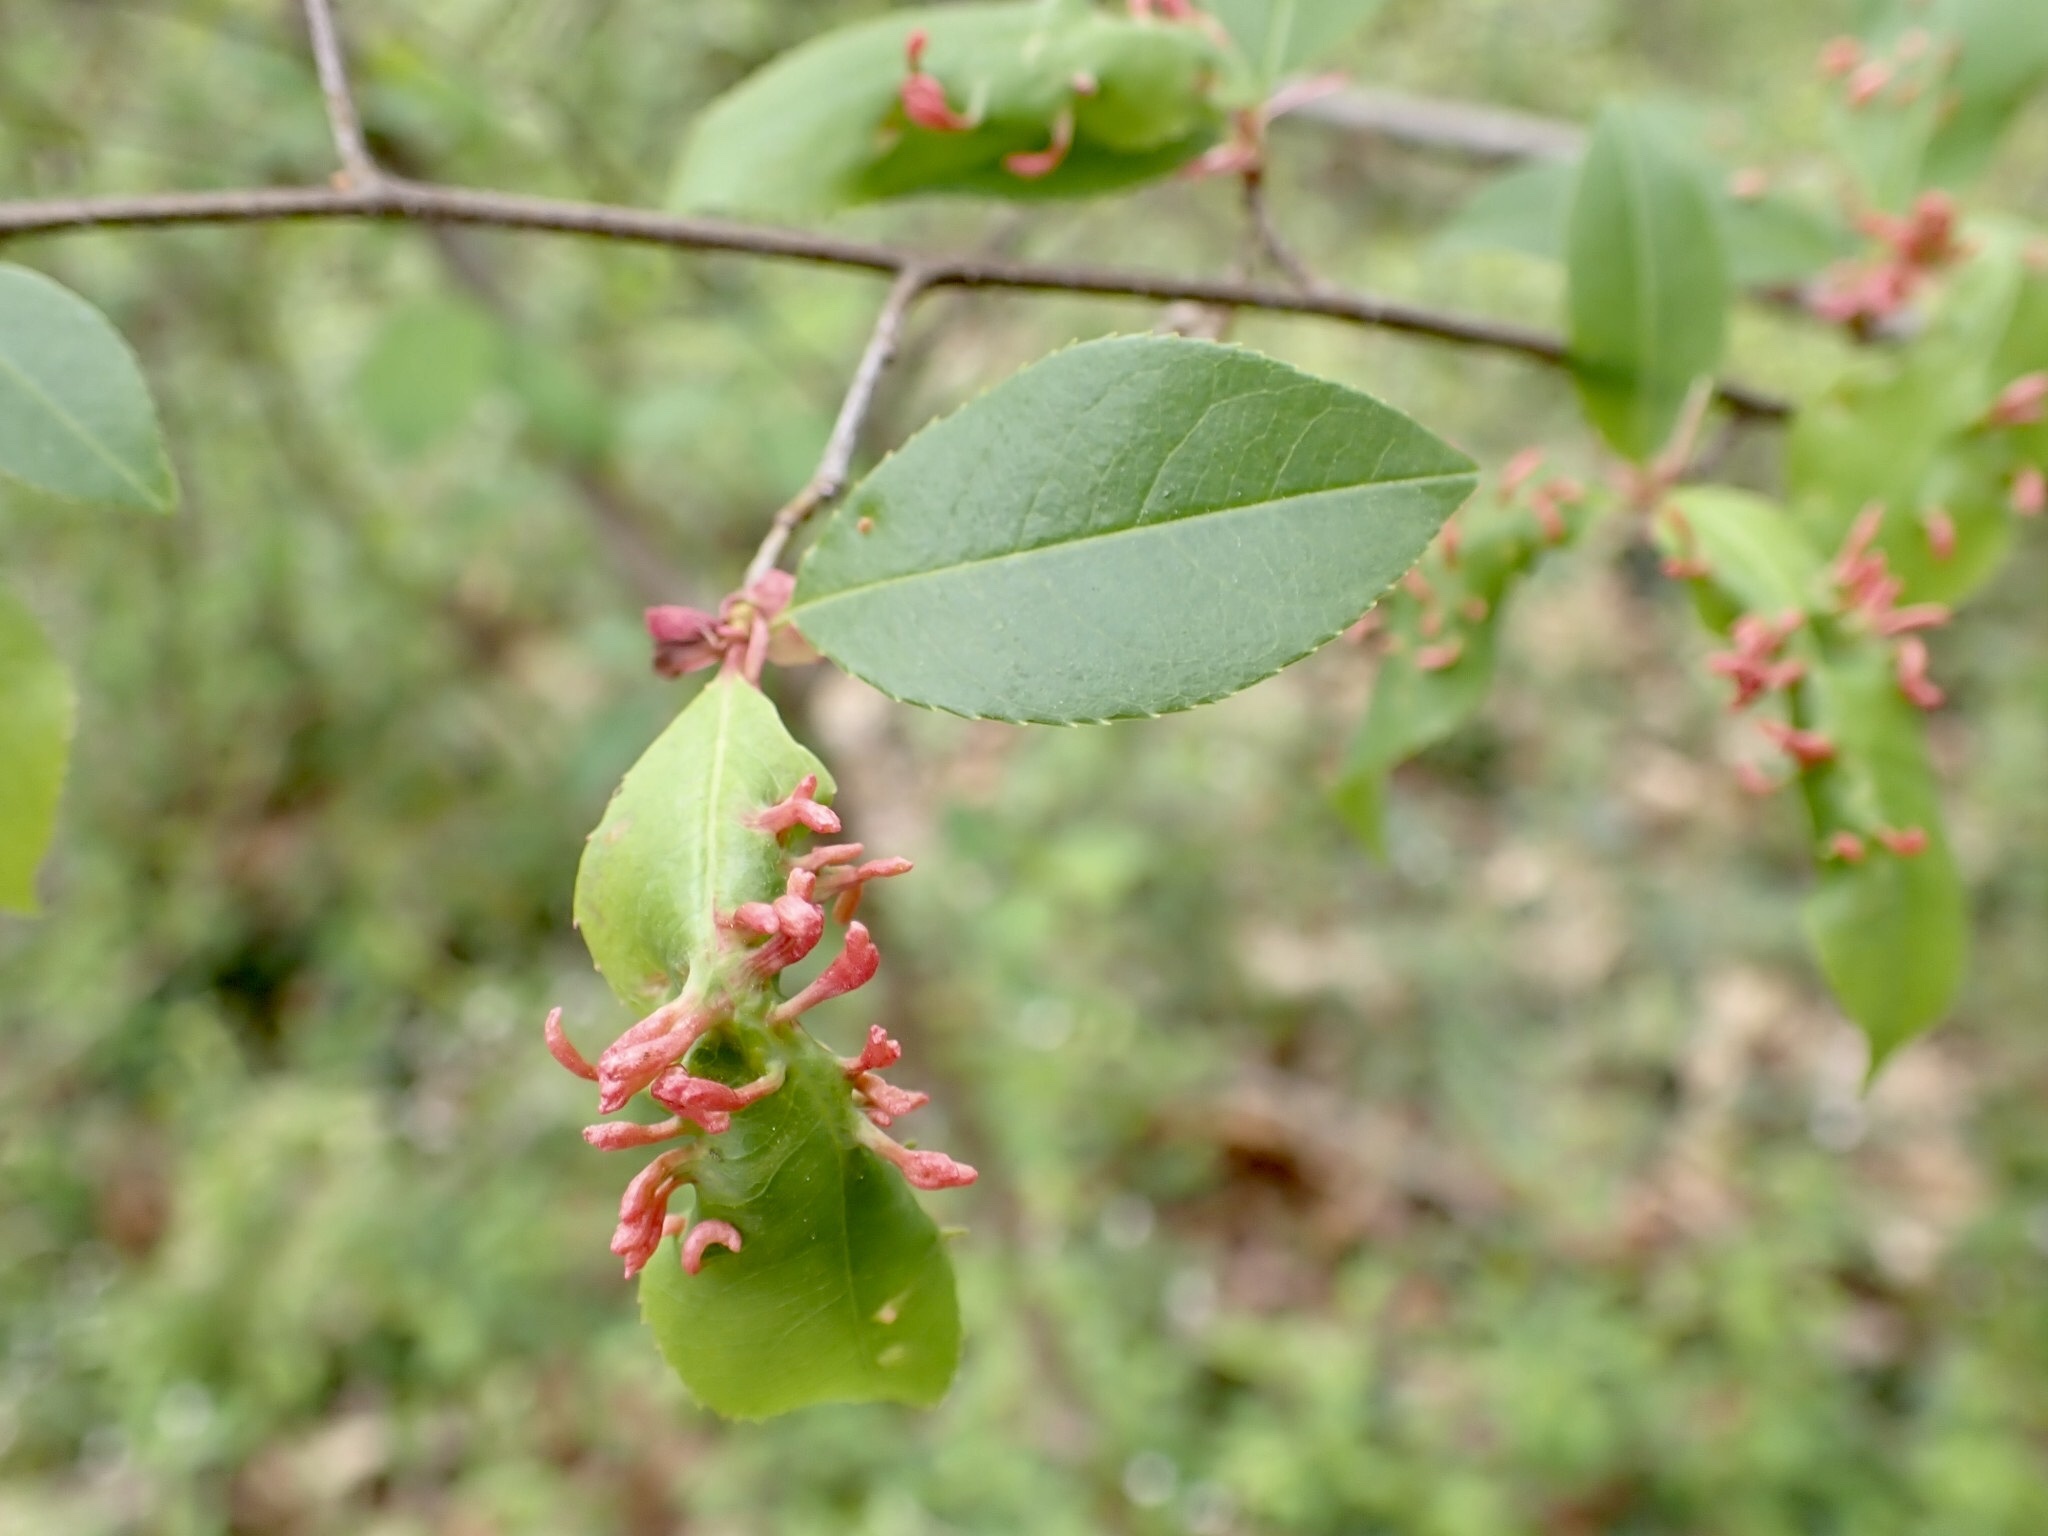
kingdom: Animalia
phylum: Arthropoda
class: Arachnida
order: Trombidiformes
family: Eriophyidae
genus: Eriophyes
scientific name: Eriophyes
